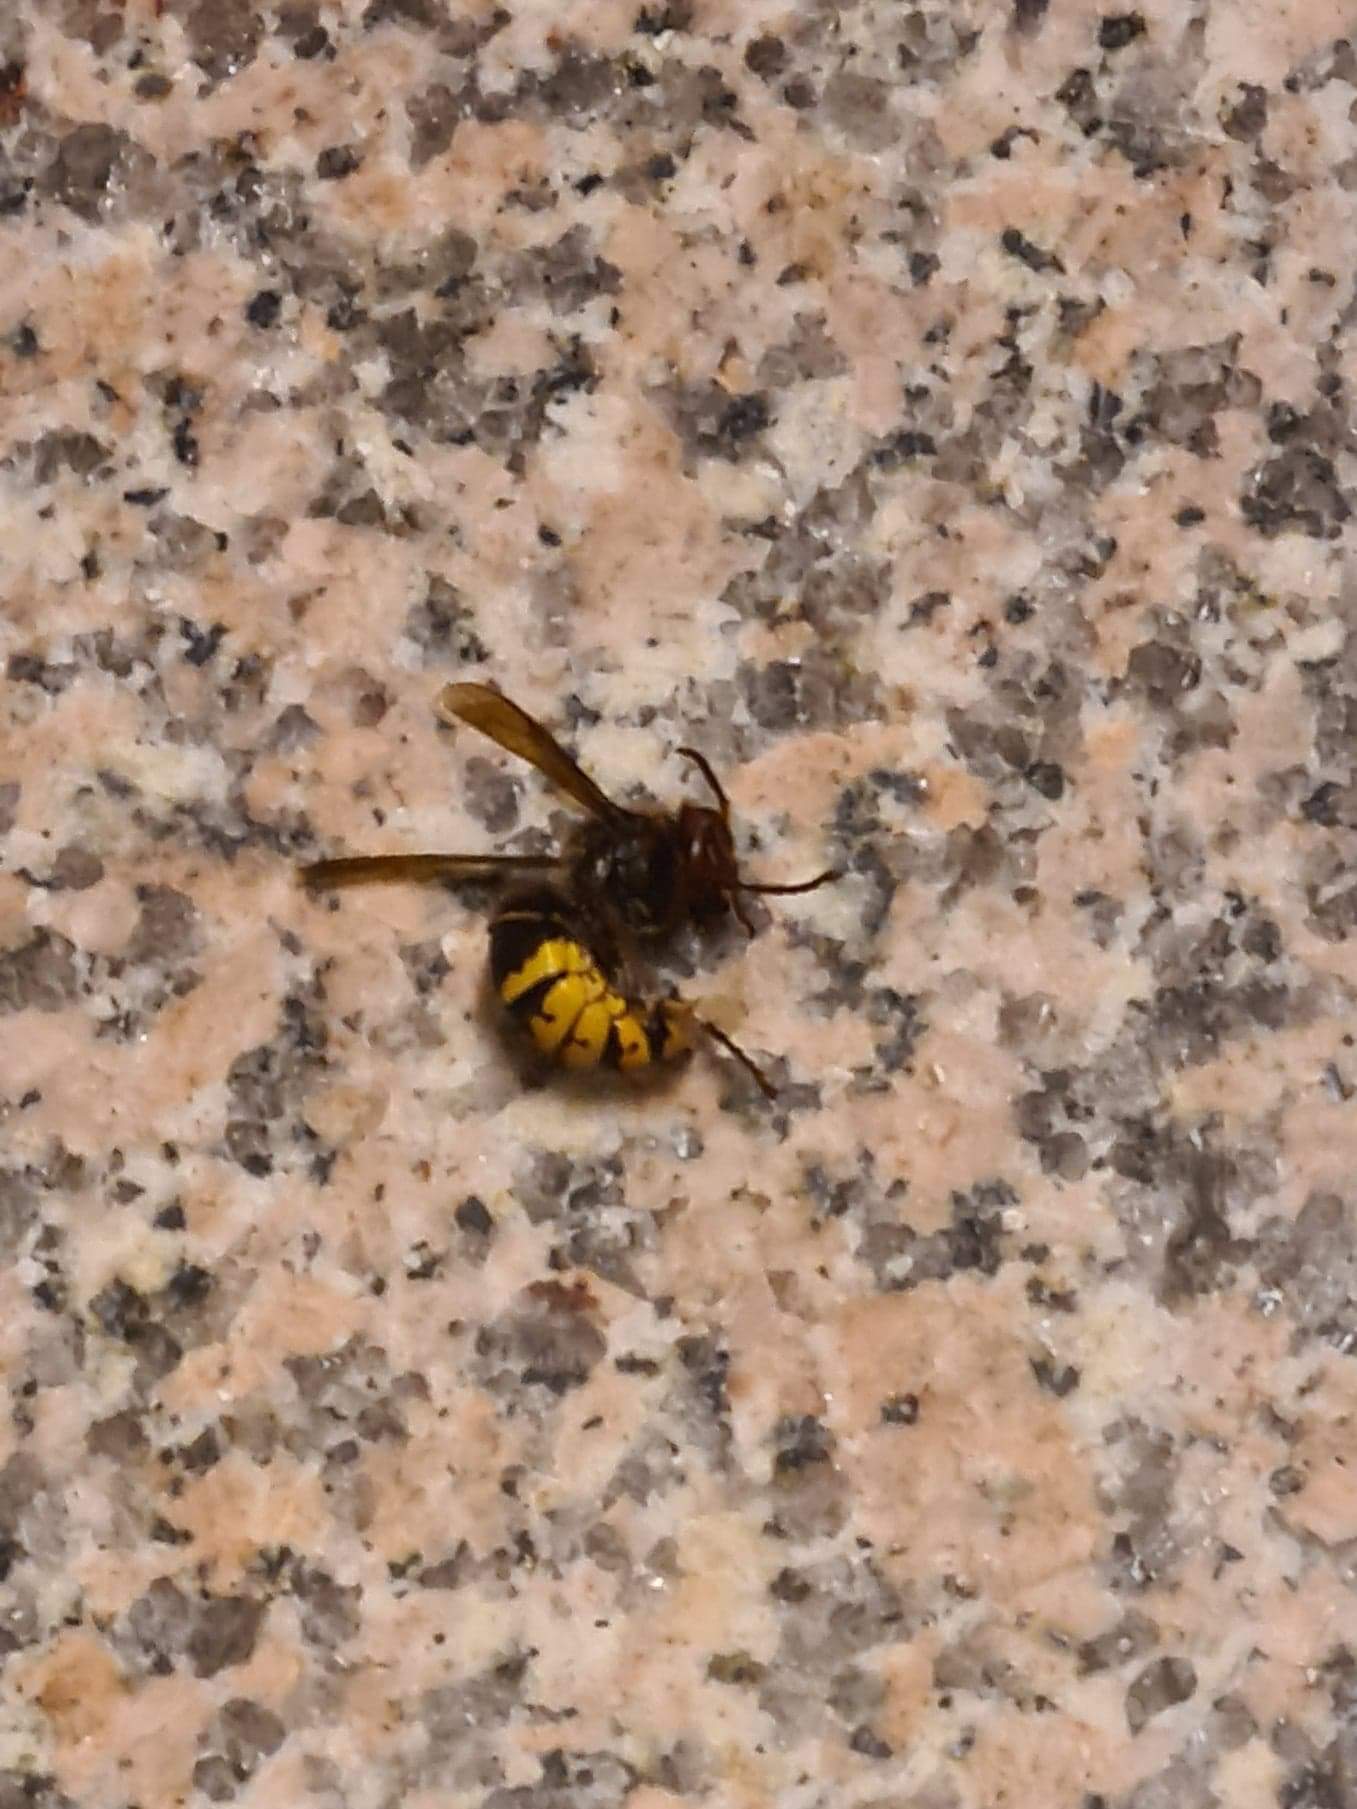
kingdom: Animalia
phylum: Arthropoda
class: Insecta
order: Hymenoptera
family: Vespidae
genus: Vespa
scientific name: Vespa crabro
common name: Hornet
